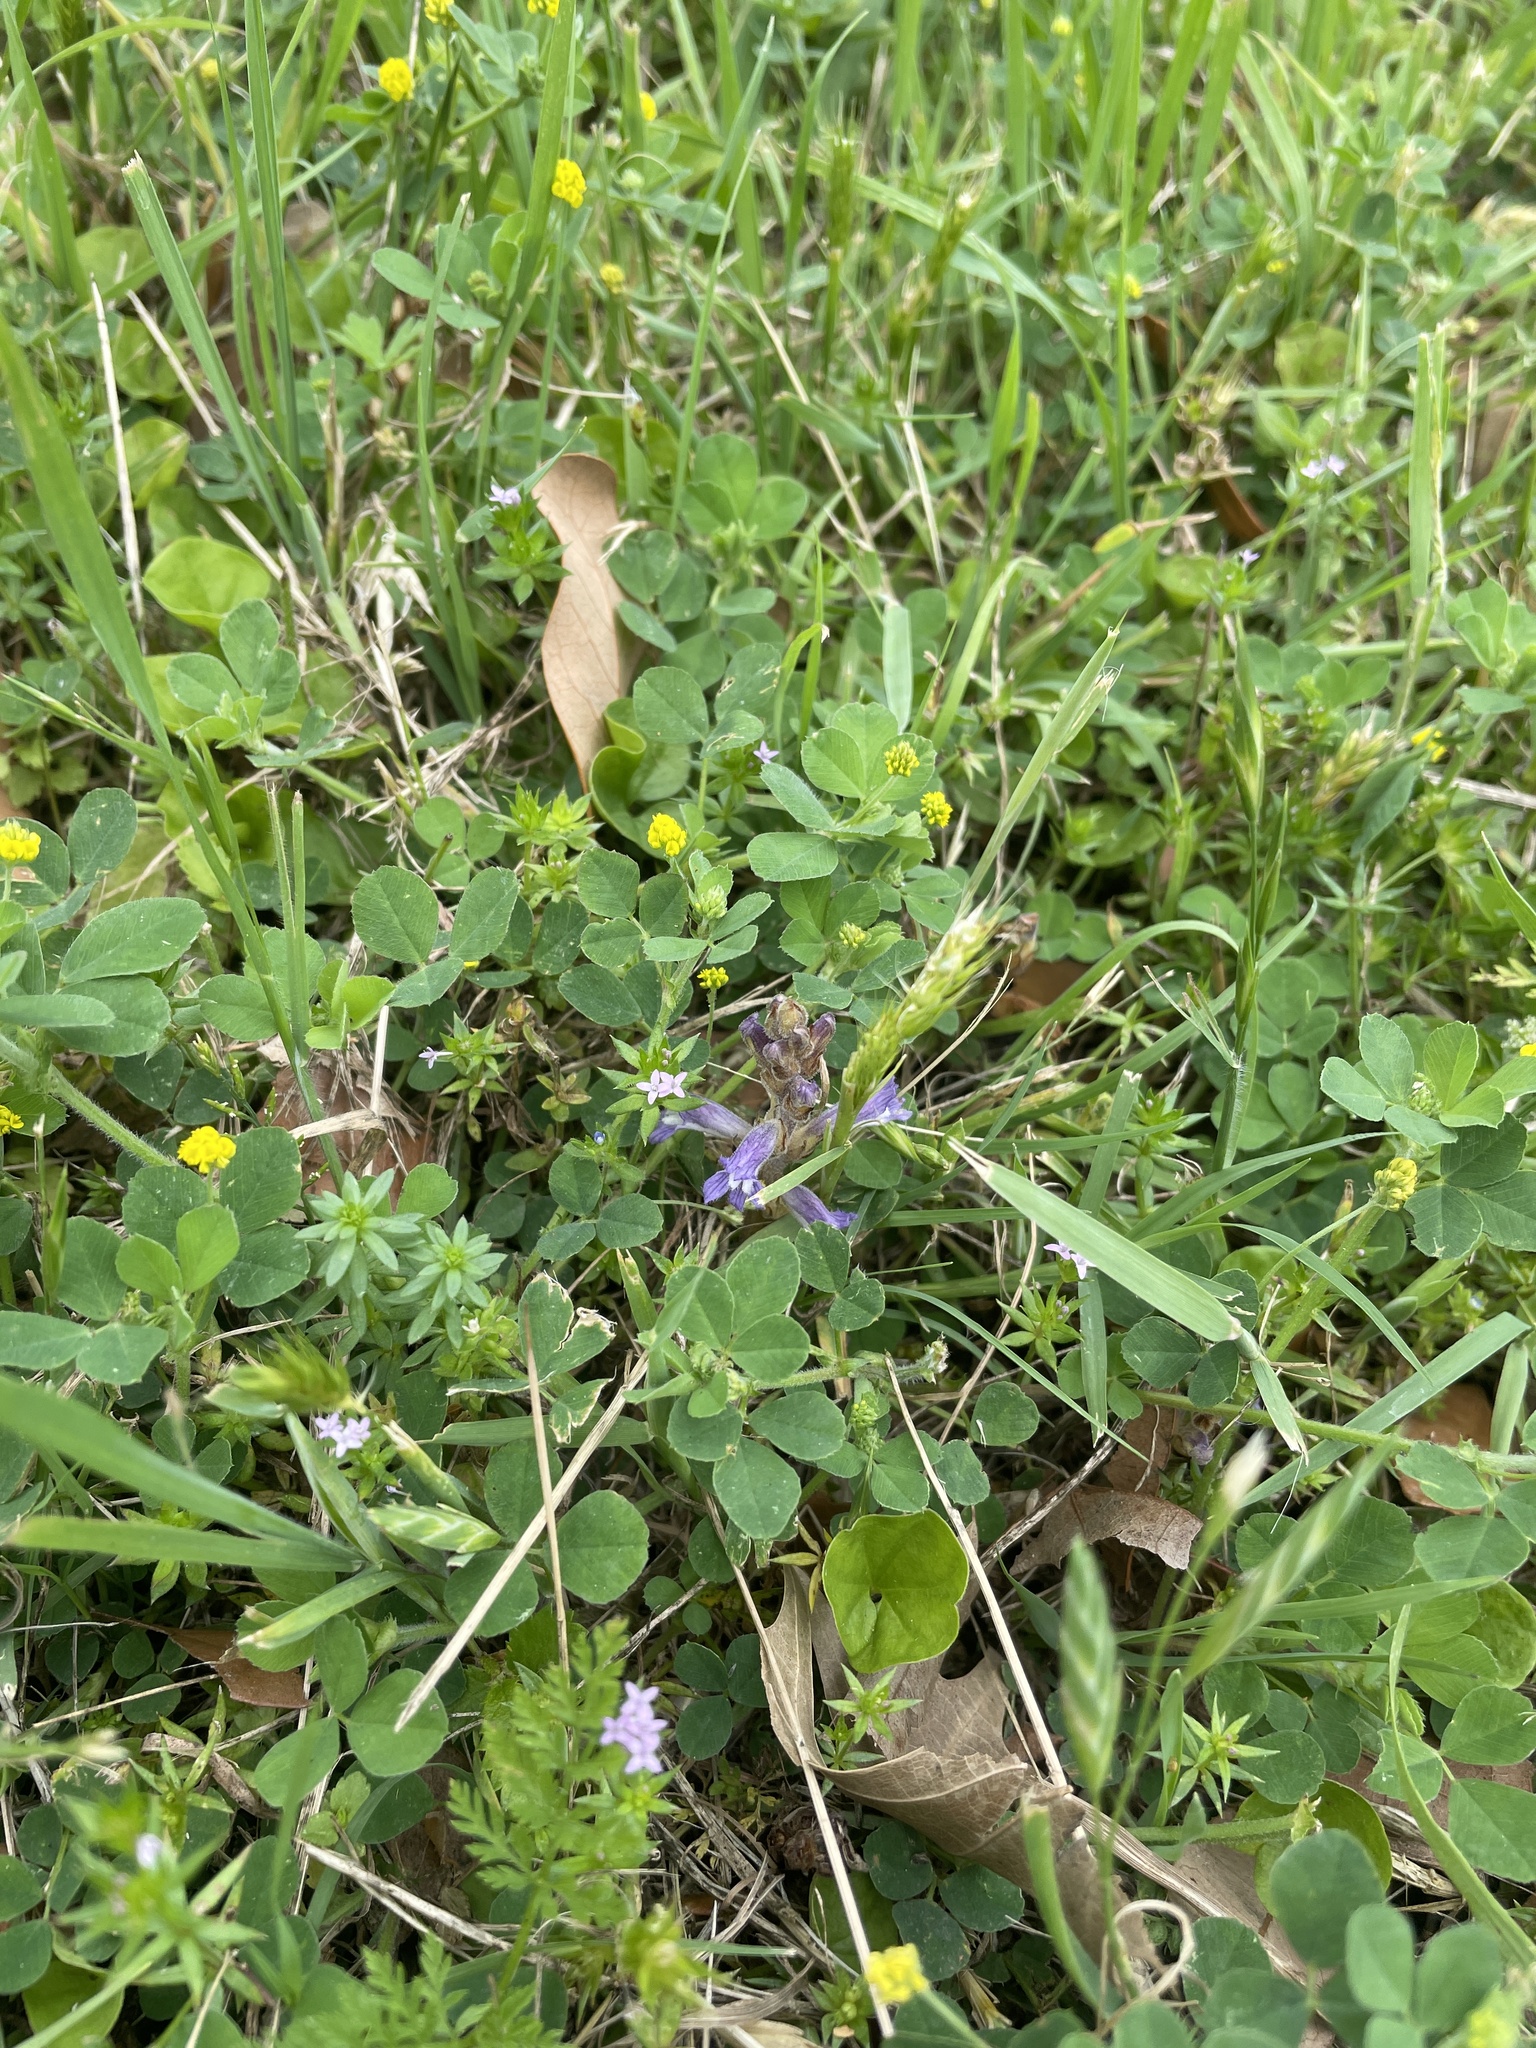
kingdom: Plantae
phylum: Tracheophyta
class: Magnoliopsida
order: Lamiales
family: Orobanchaceae
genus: Phelipanche
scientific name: Phelipanche mutelii
